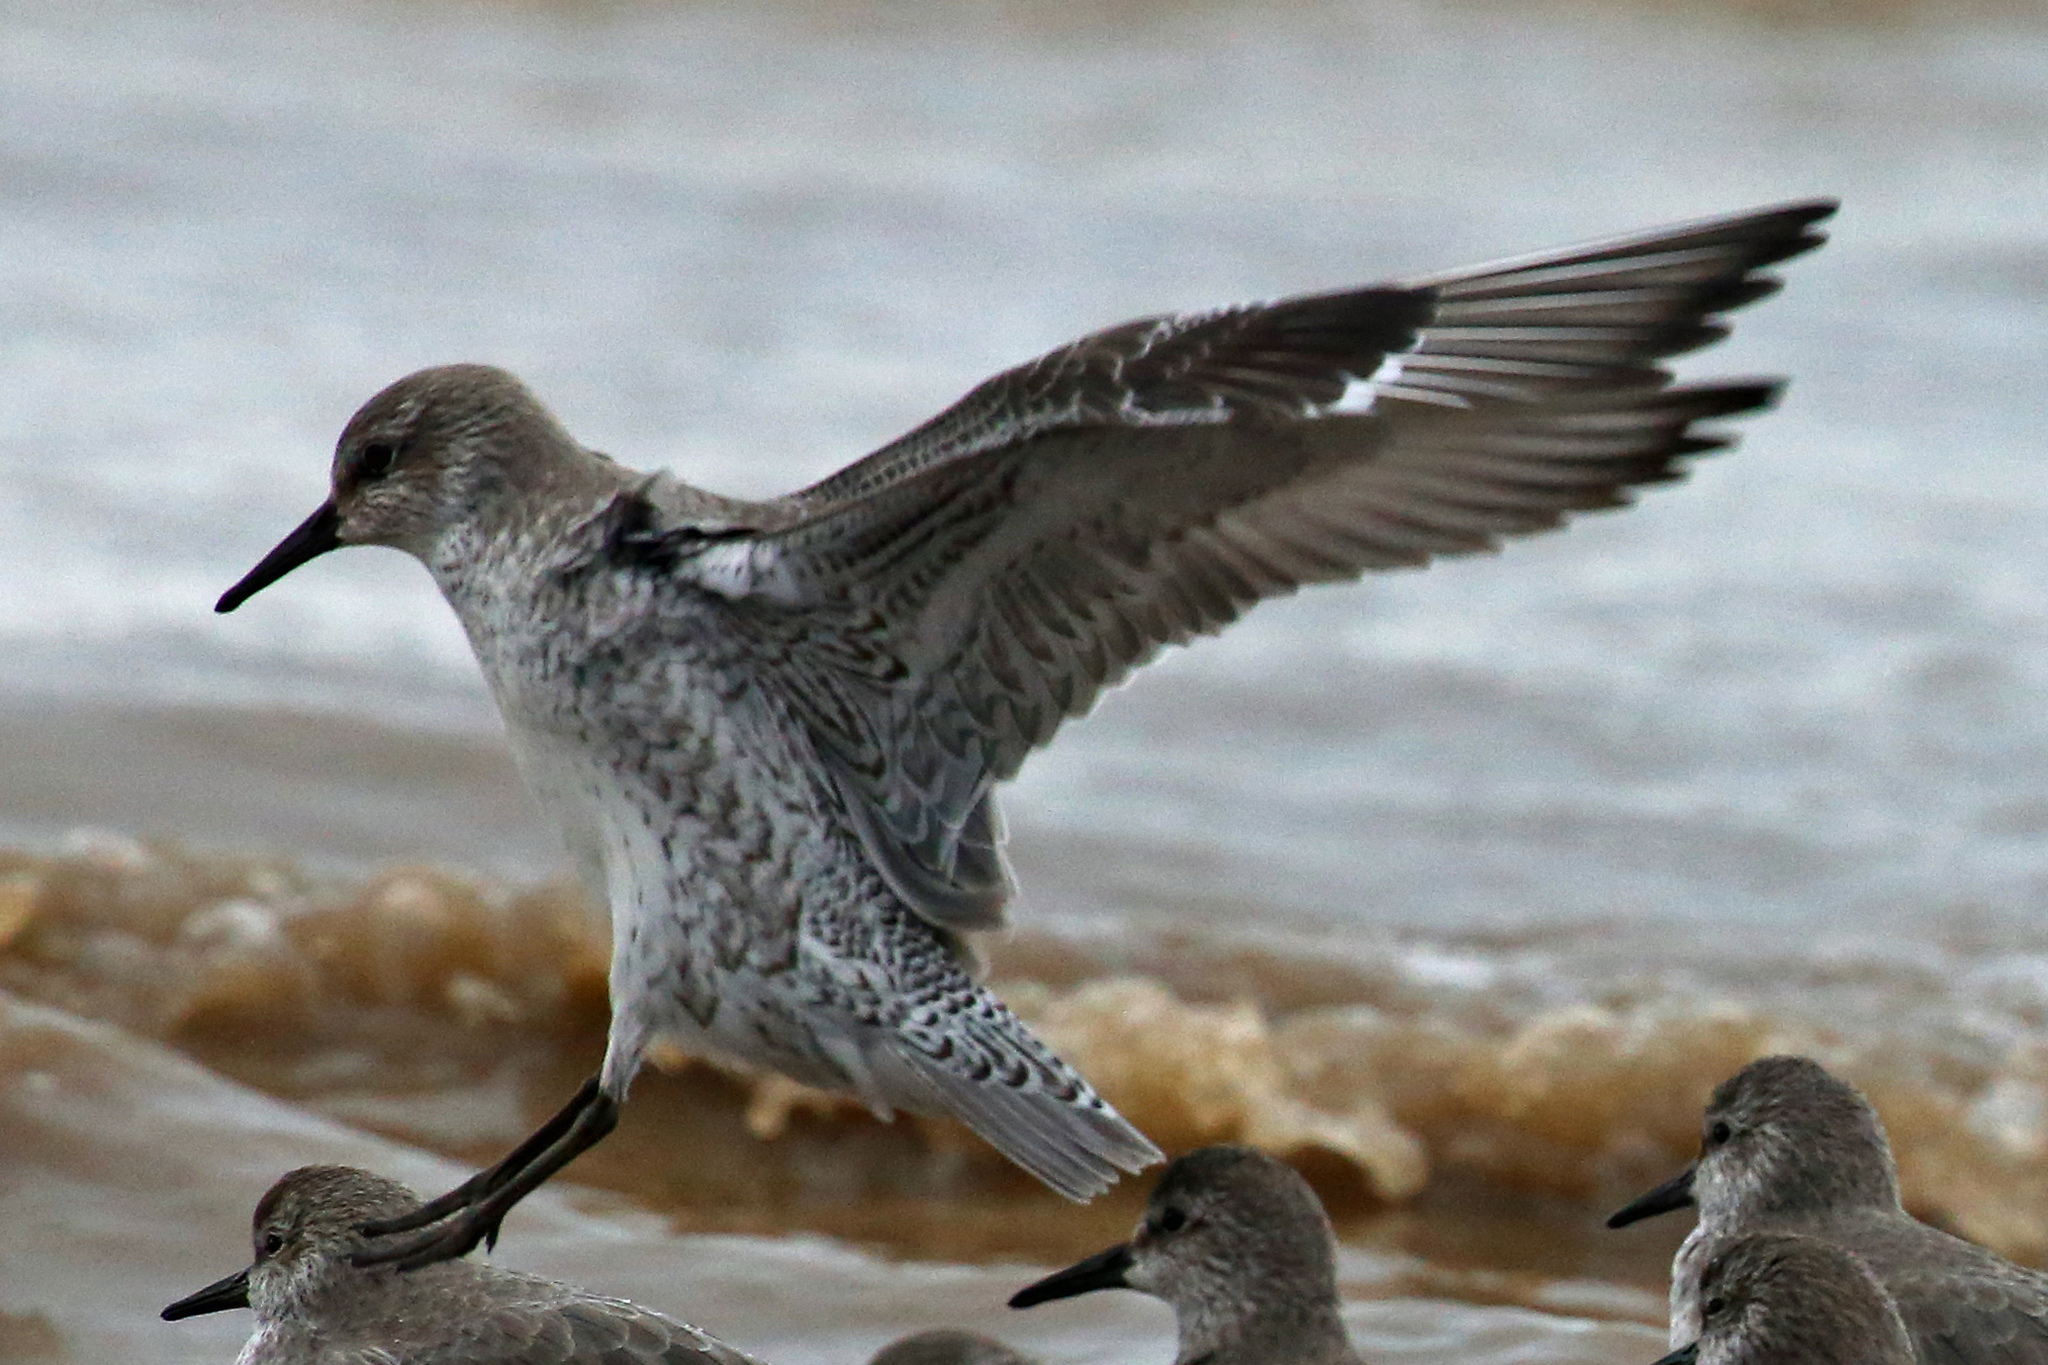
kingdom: Animalia
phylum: Chordata
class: Aves
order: Charadriiformes
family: Scolopacidae
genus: Calidris
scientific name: Calidris canutus
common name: Red knot
